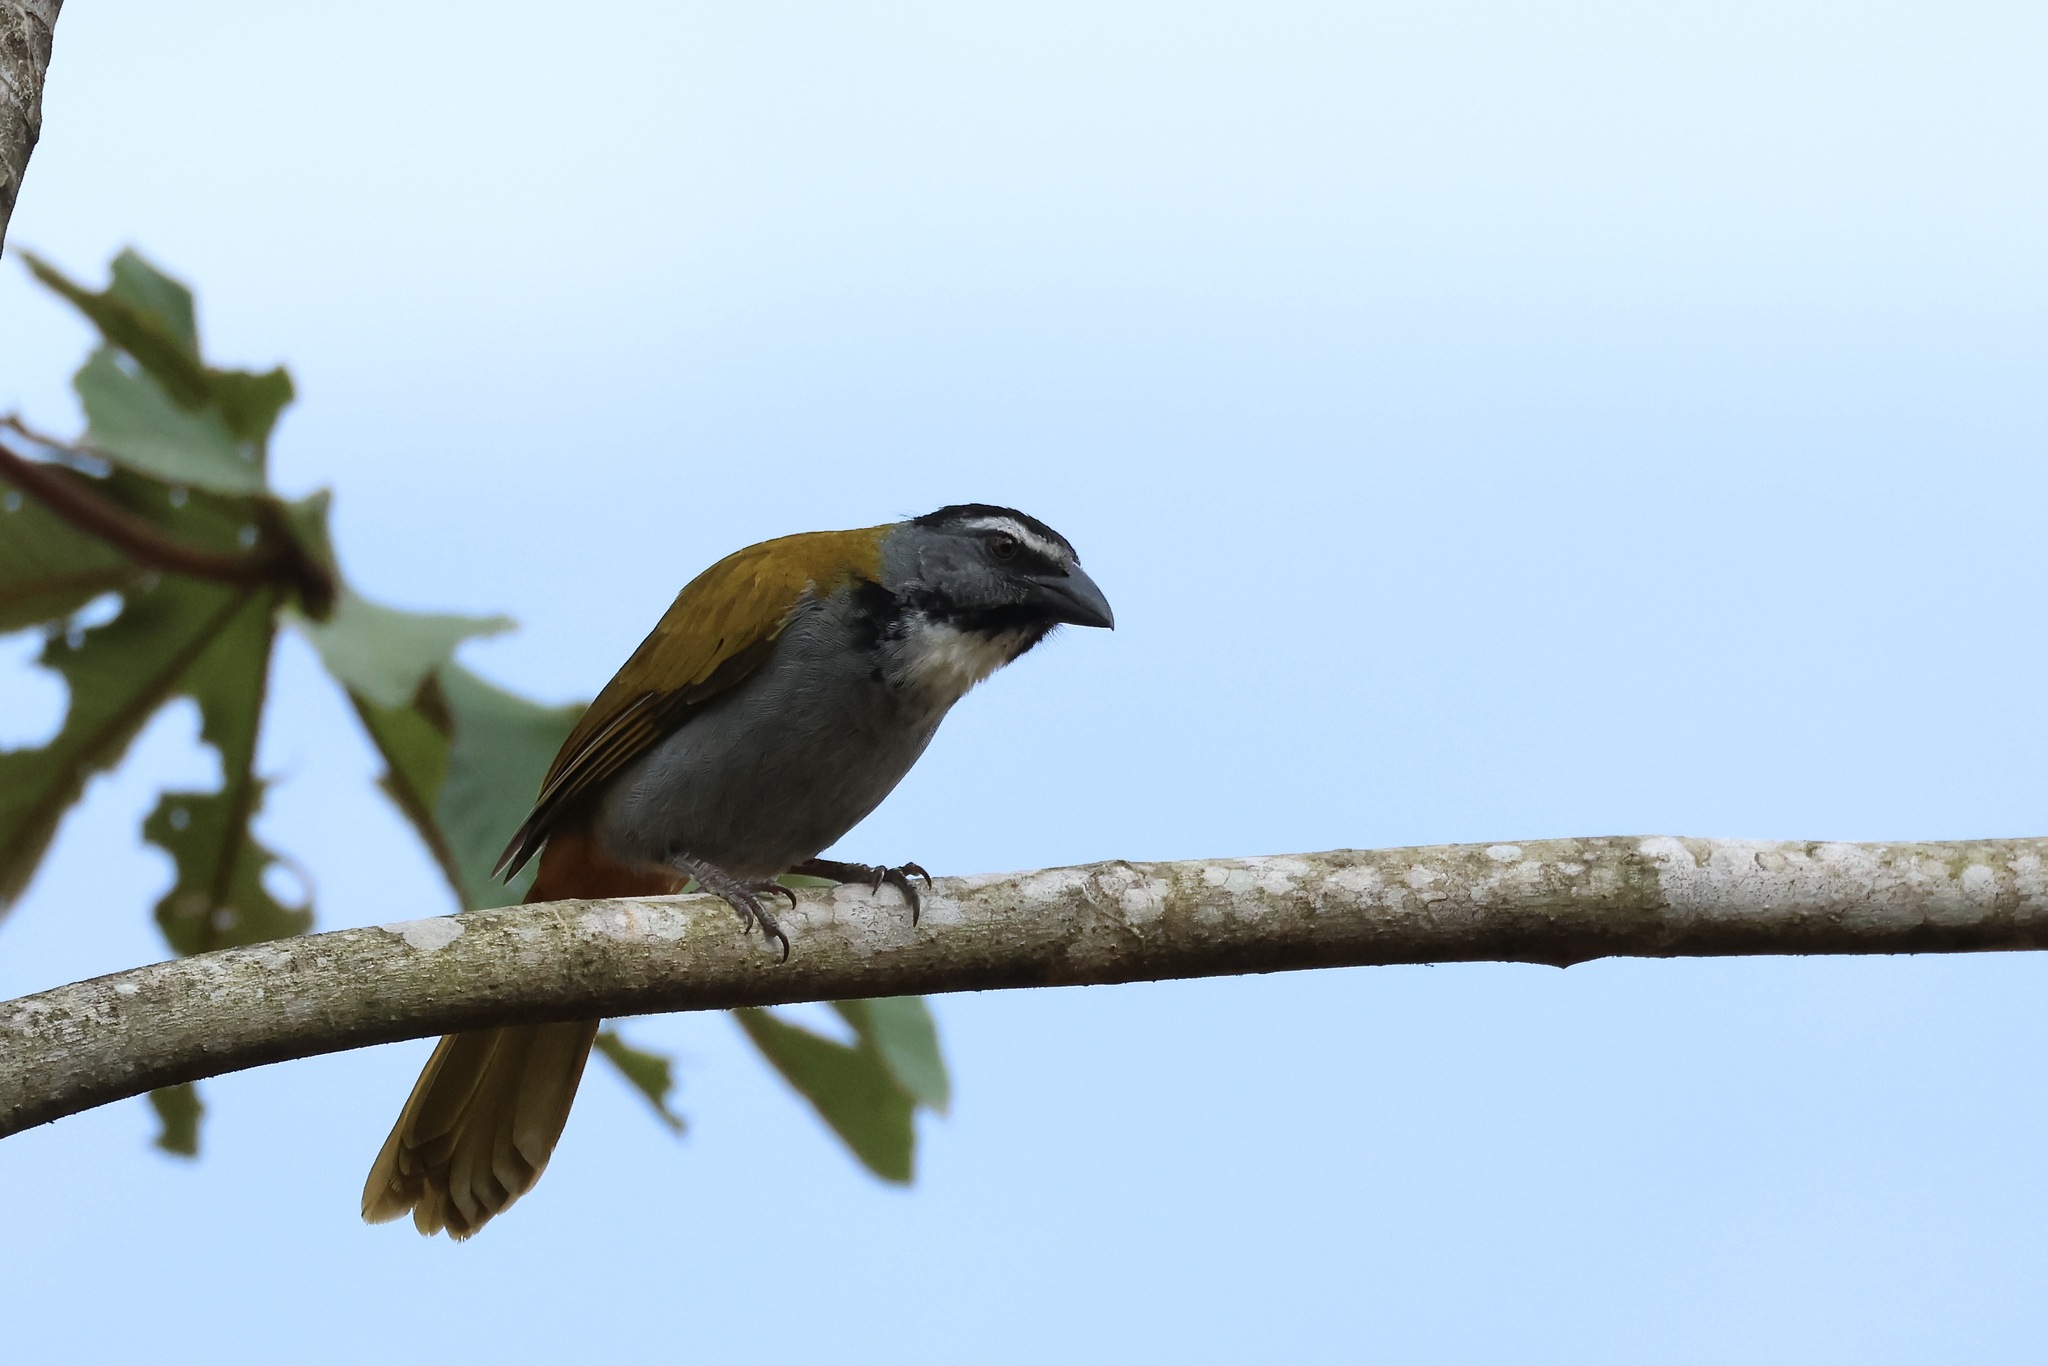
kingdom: Animalia
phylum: Chordata
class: Aves
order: Passeriformes
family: Thraupidae
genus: Saltator
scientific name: Saltator atriceps
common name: Black-headed saltator
